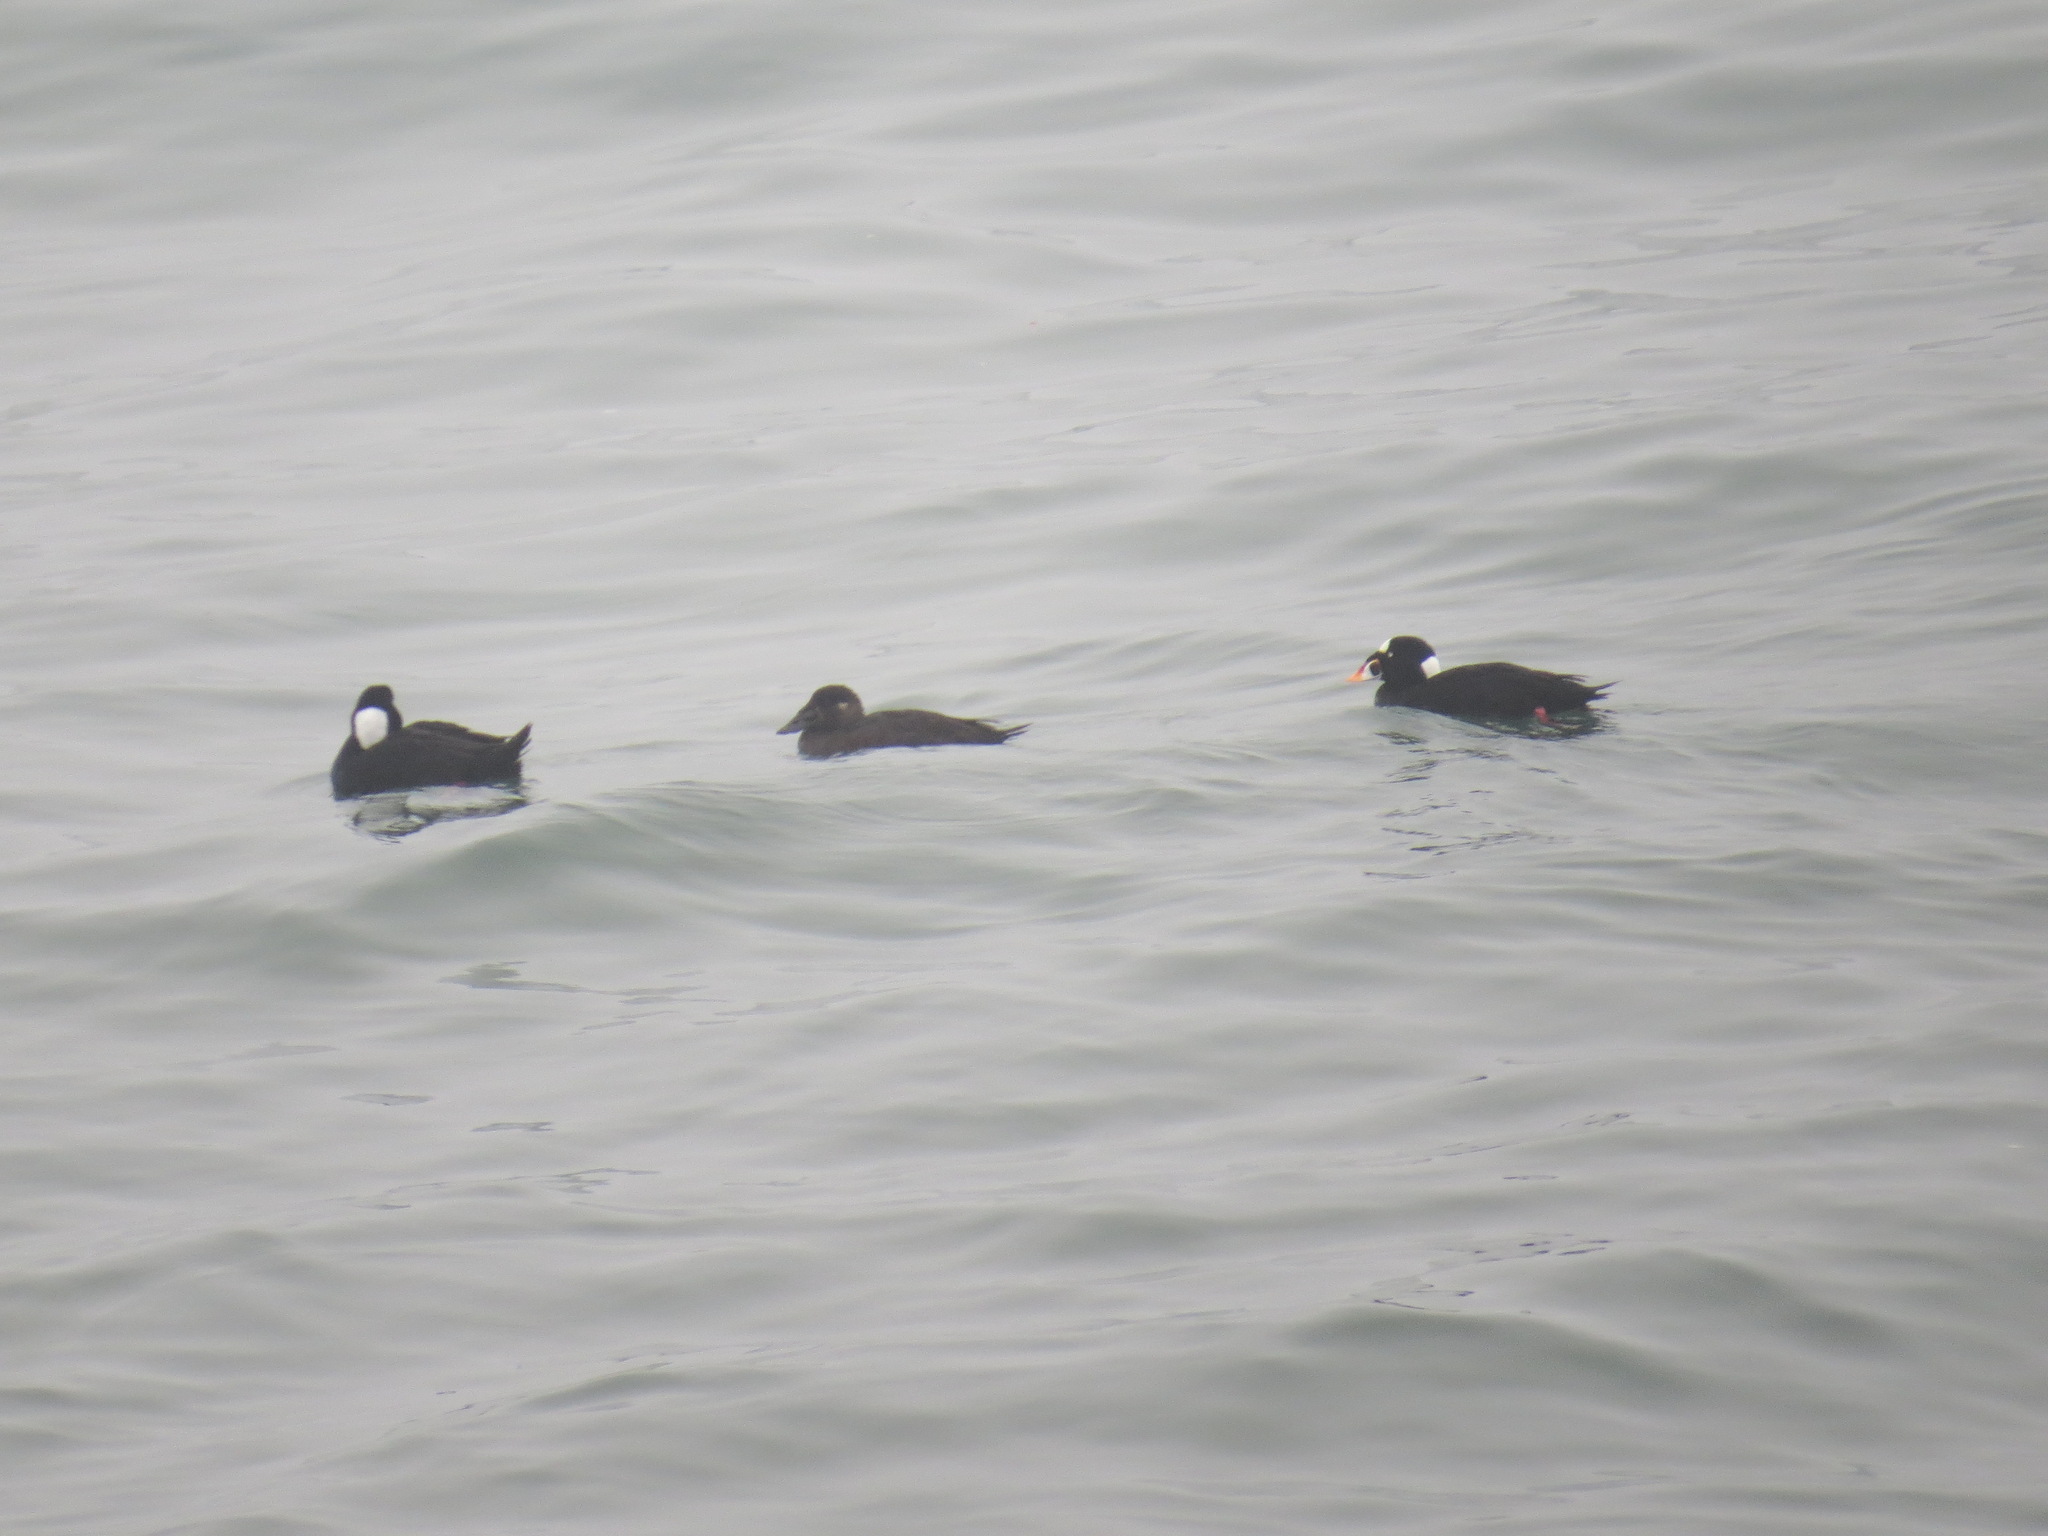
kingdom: Animalia
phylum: Chordata
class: Aves
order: Anseriformes
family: Anatidae
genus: Melanitta
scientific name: Melanitta perspicillata
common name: Surf scoter
